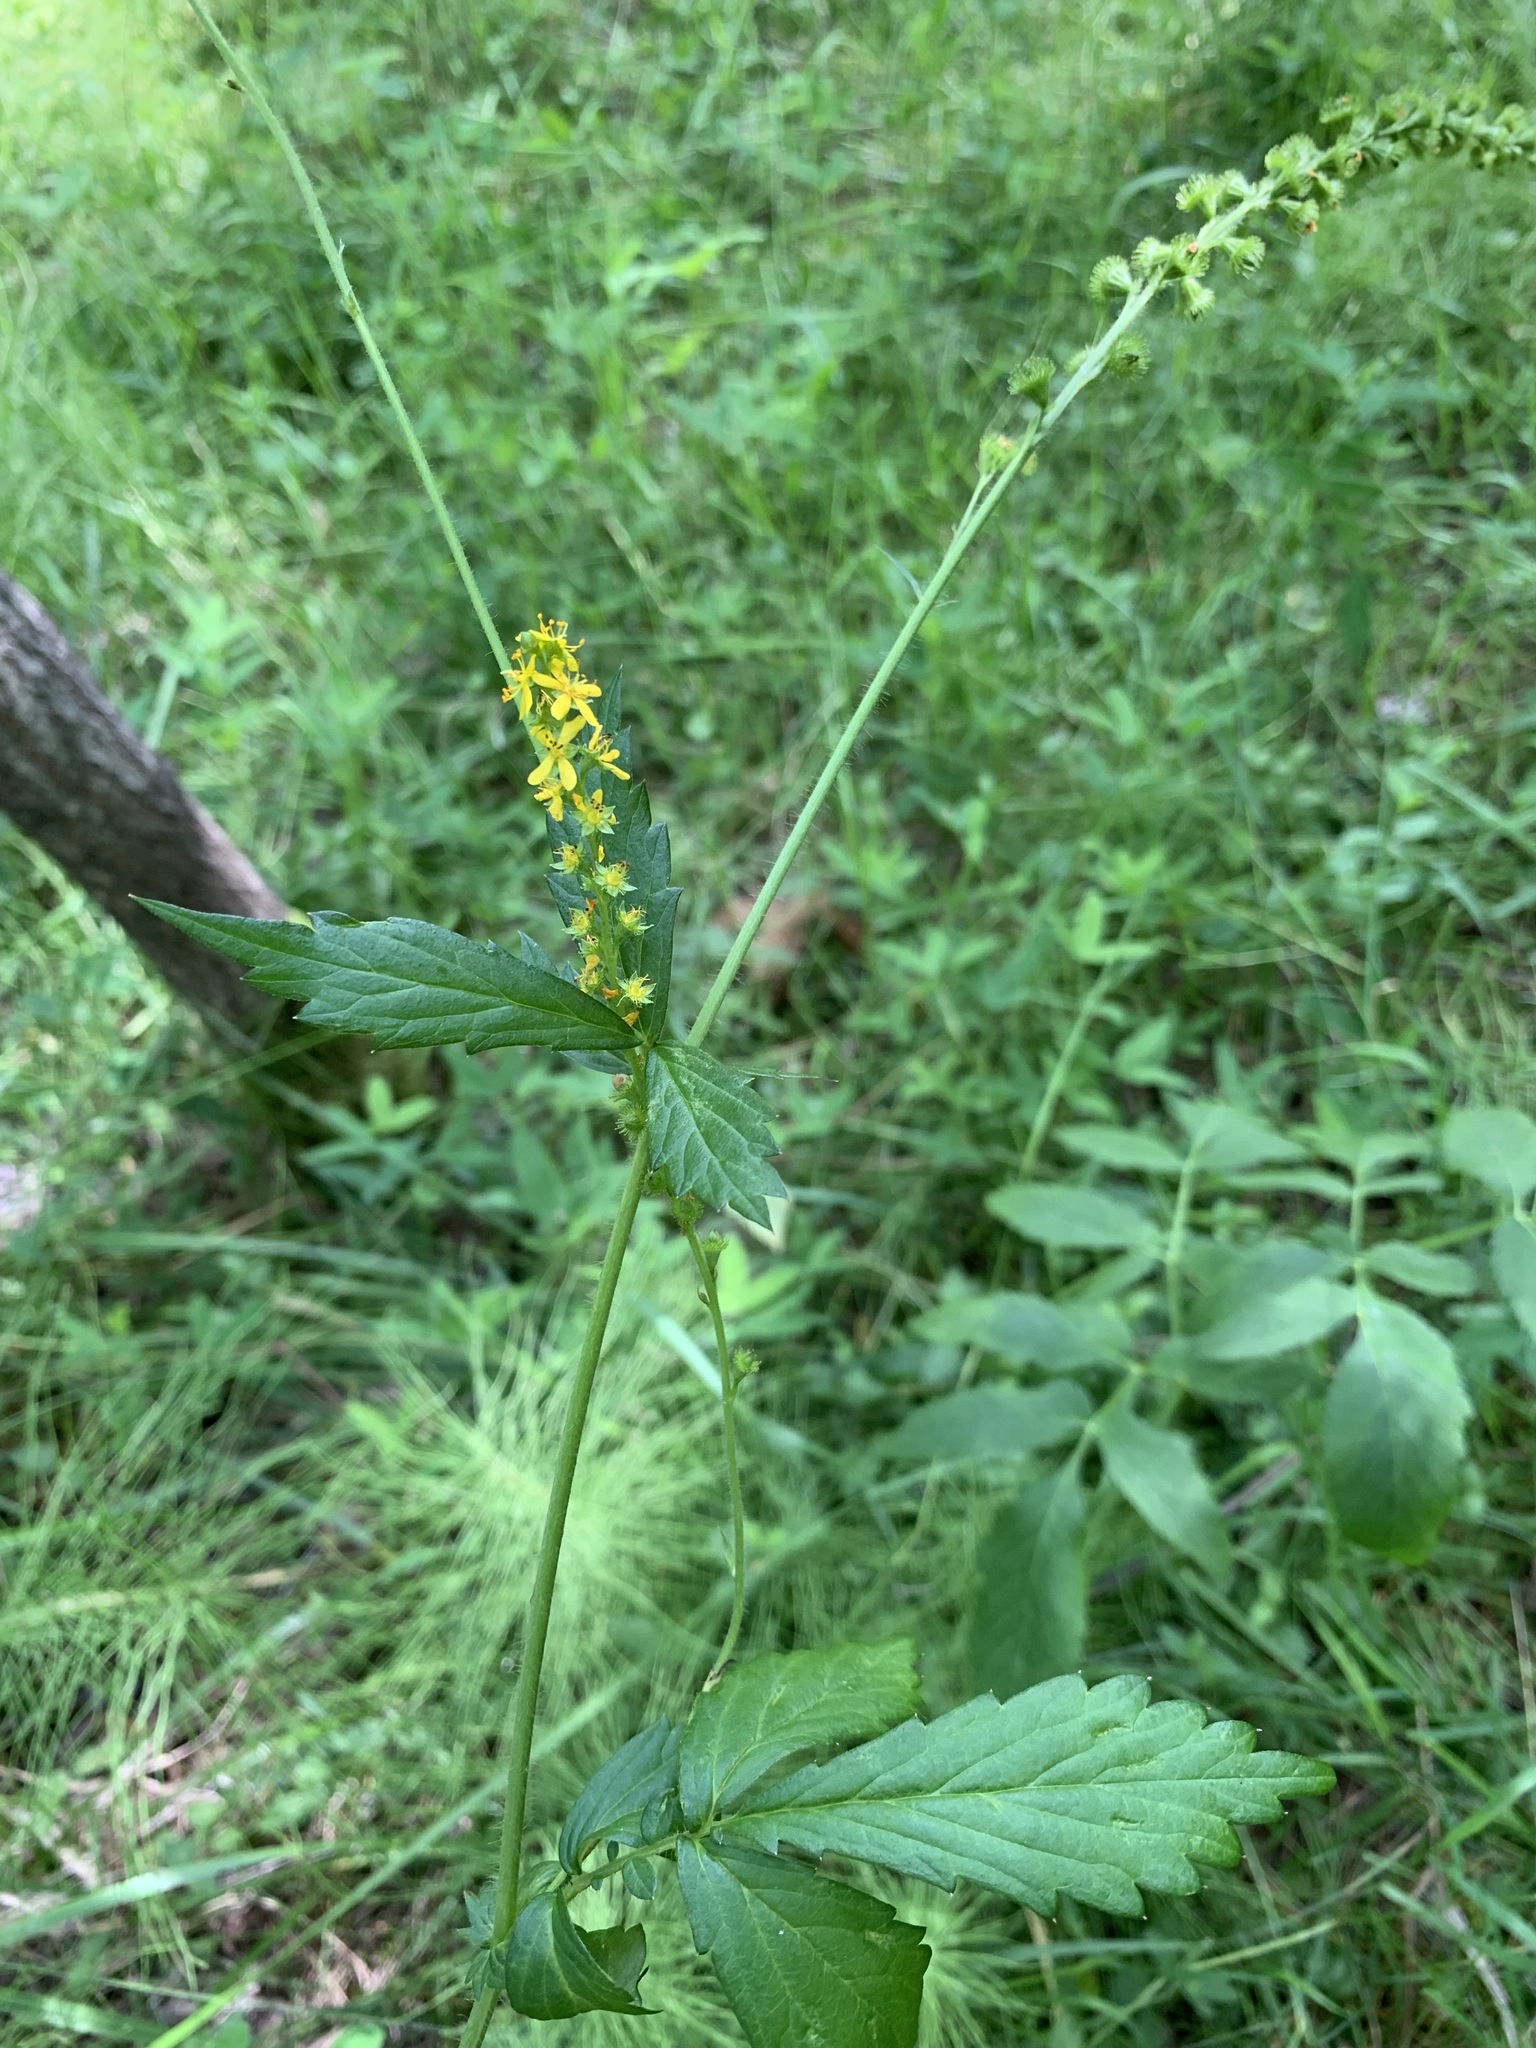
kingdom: Plantae
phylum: Tracheophyta
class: Magnoliopsida
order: Rosales
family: Rosaceae
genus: Agrimonia
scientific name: Agrimonia pilosa
